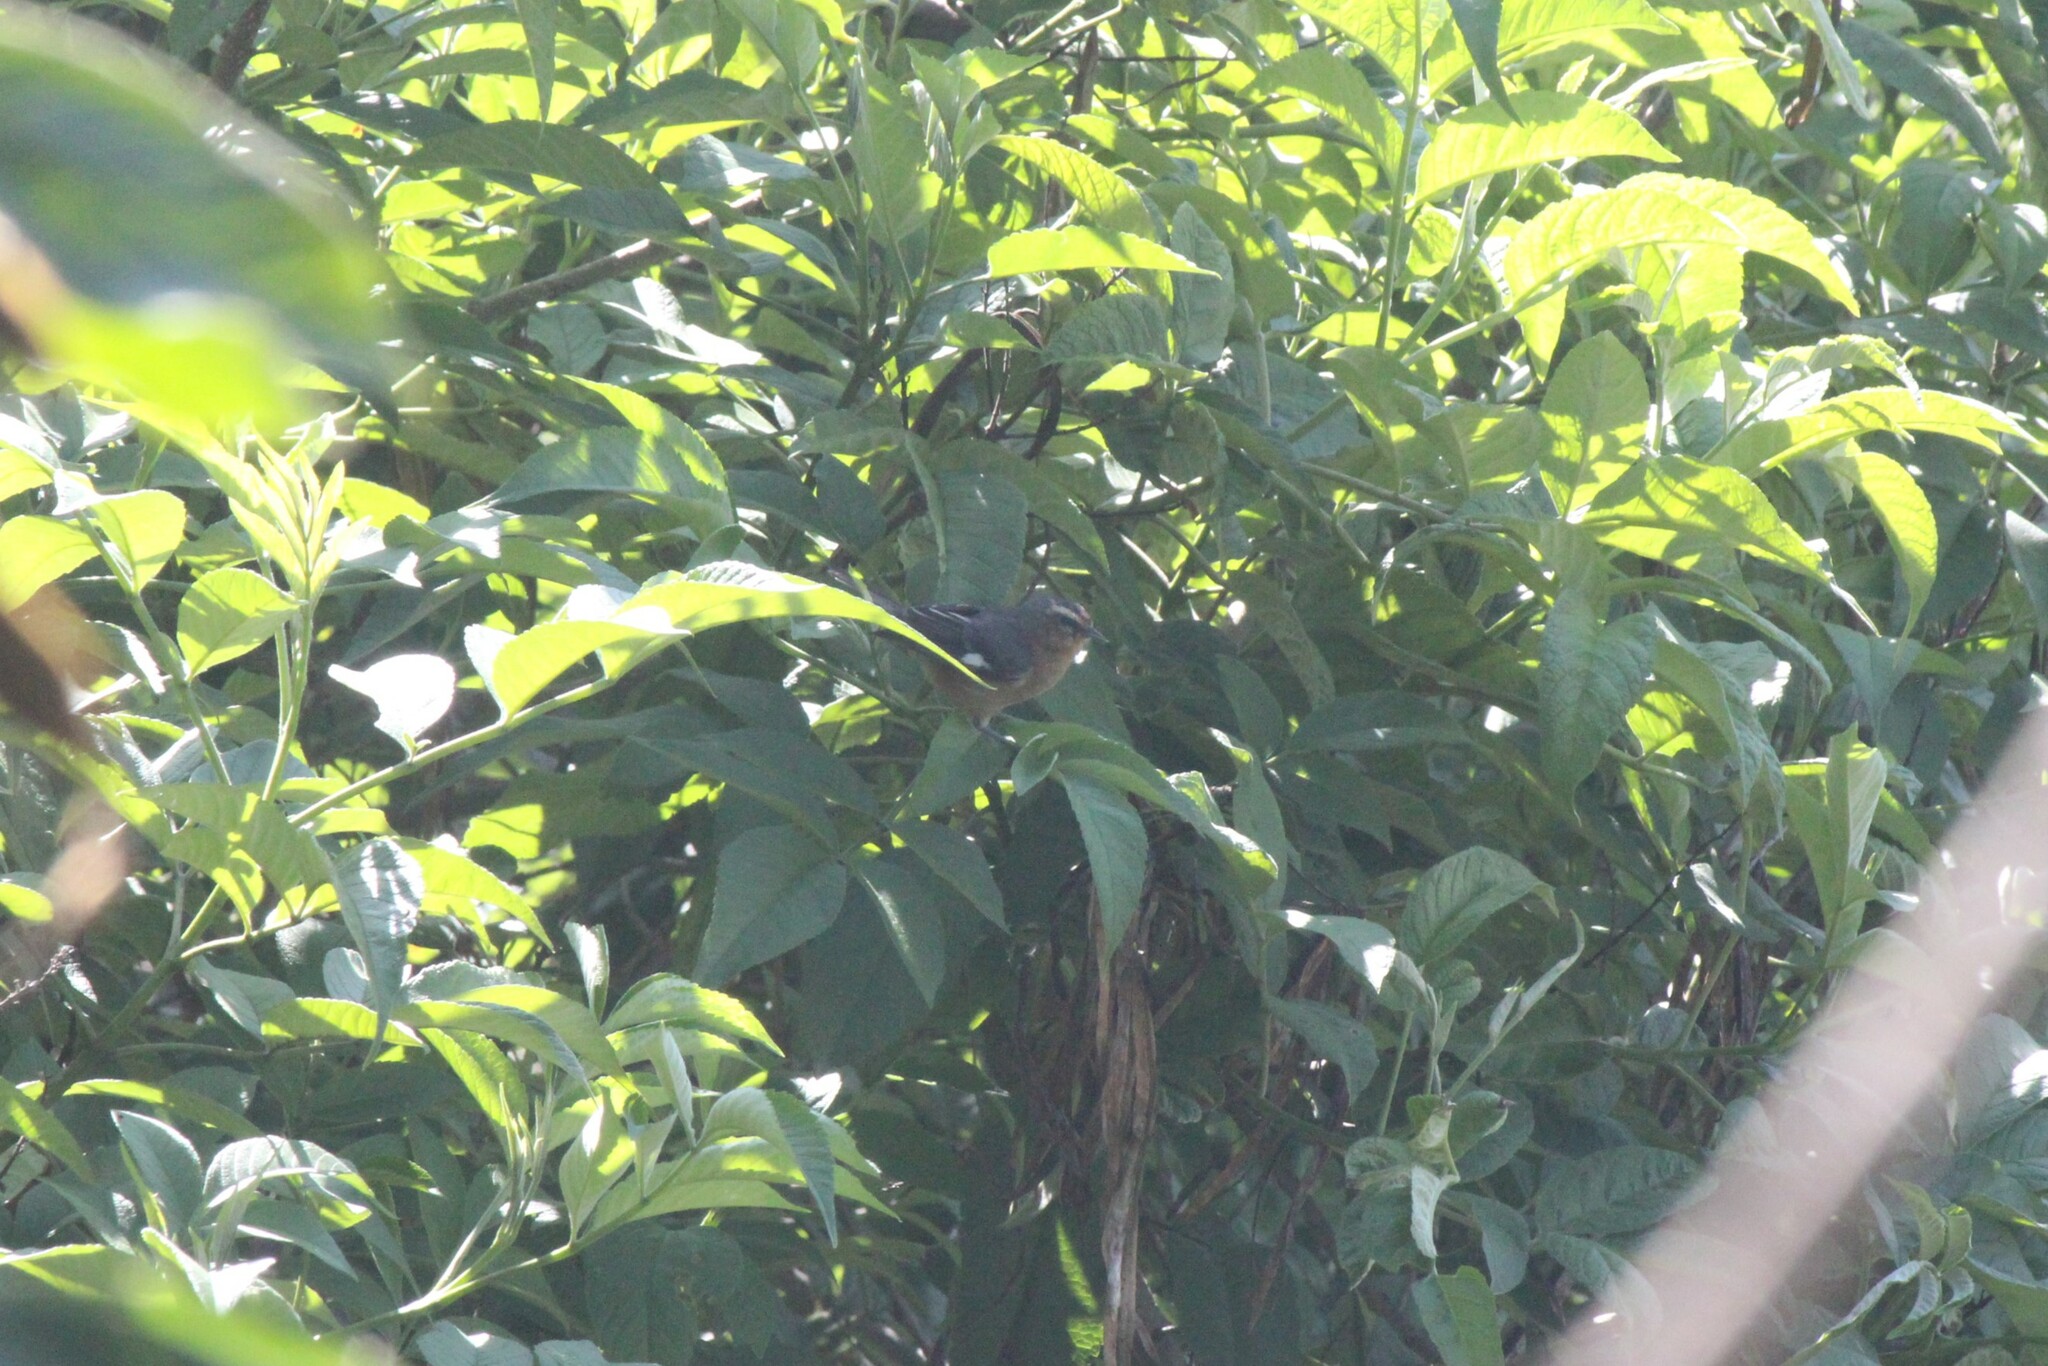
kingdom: Animalia
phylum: Chordata
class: Aves
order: Passeriformes
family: Thraupidae
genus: Conirostrum
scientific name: Conirostrum cinereum
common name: Cinereous conebill
